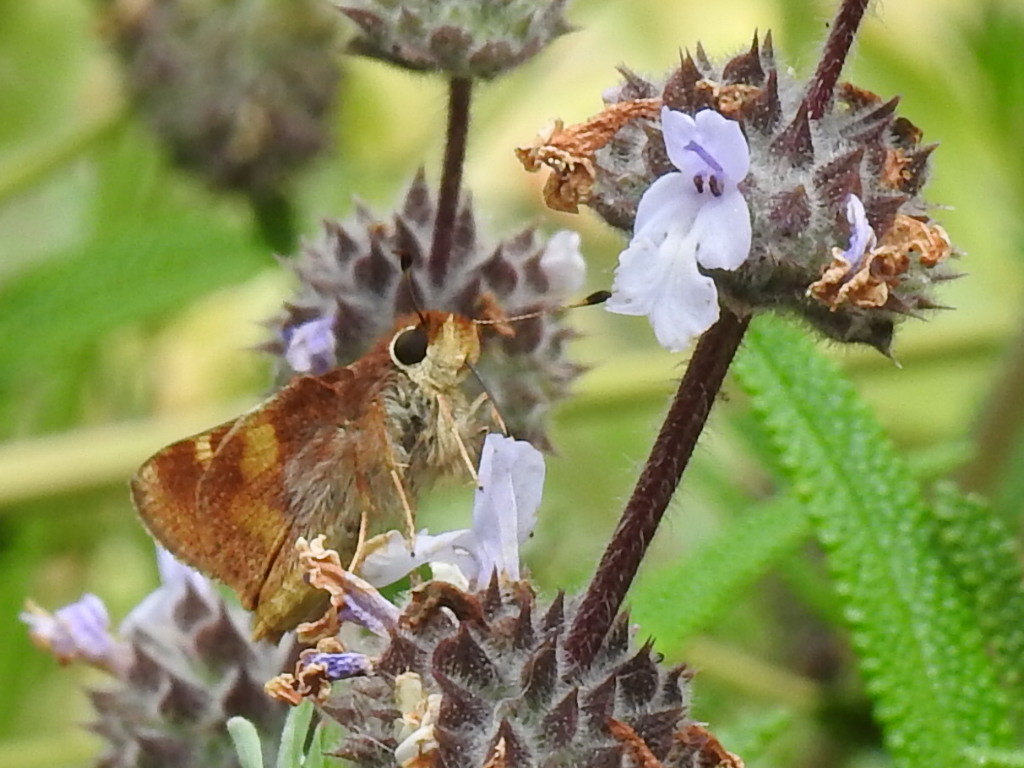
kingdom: Animalia
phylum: Arthropoda
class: Insecta
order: Lepidoptera
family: Hesperiidae
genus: Lon
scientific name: Lon melane
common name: Umber skipper
